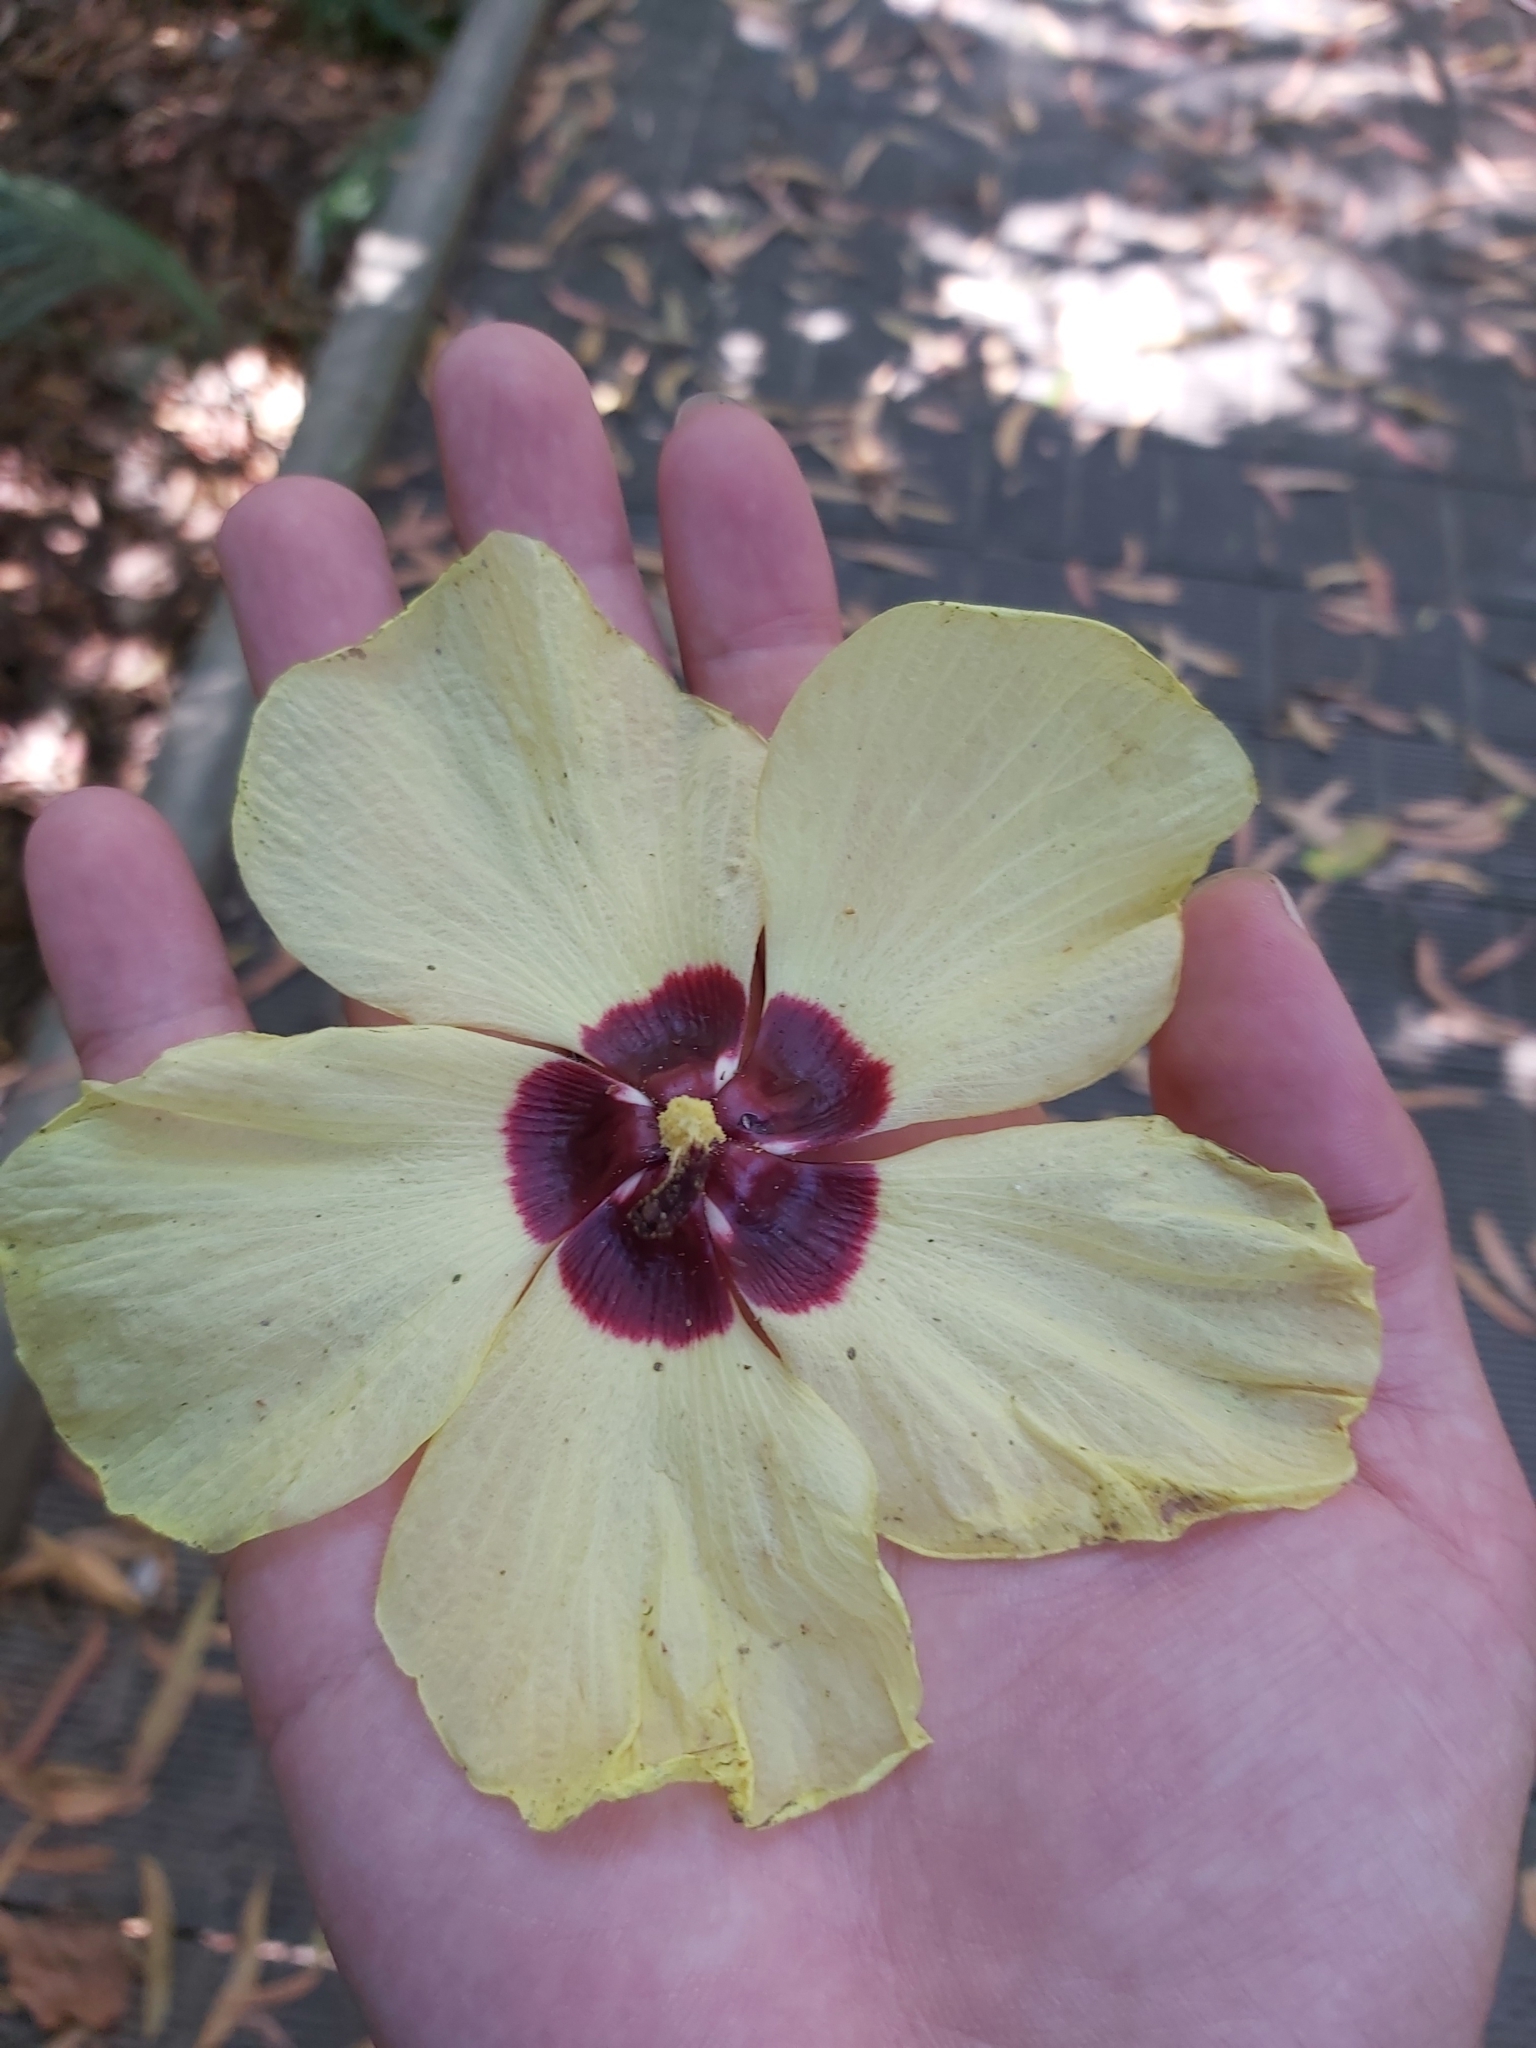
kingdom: Plantae
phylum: Tracheophyta
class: Magnoliopsida
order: Malvales
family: Malvaceae
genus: Talipariti
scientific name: Talipariti tiliaceum
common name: Sea hibiscus
